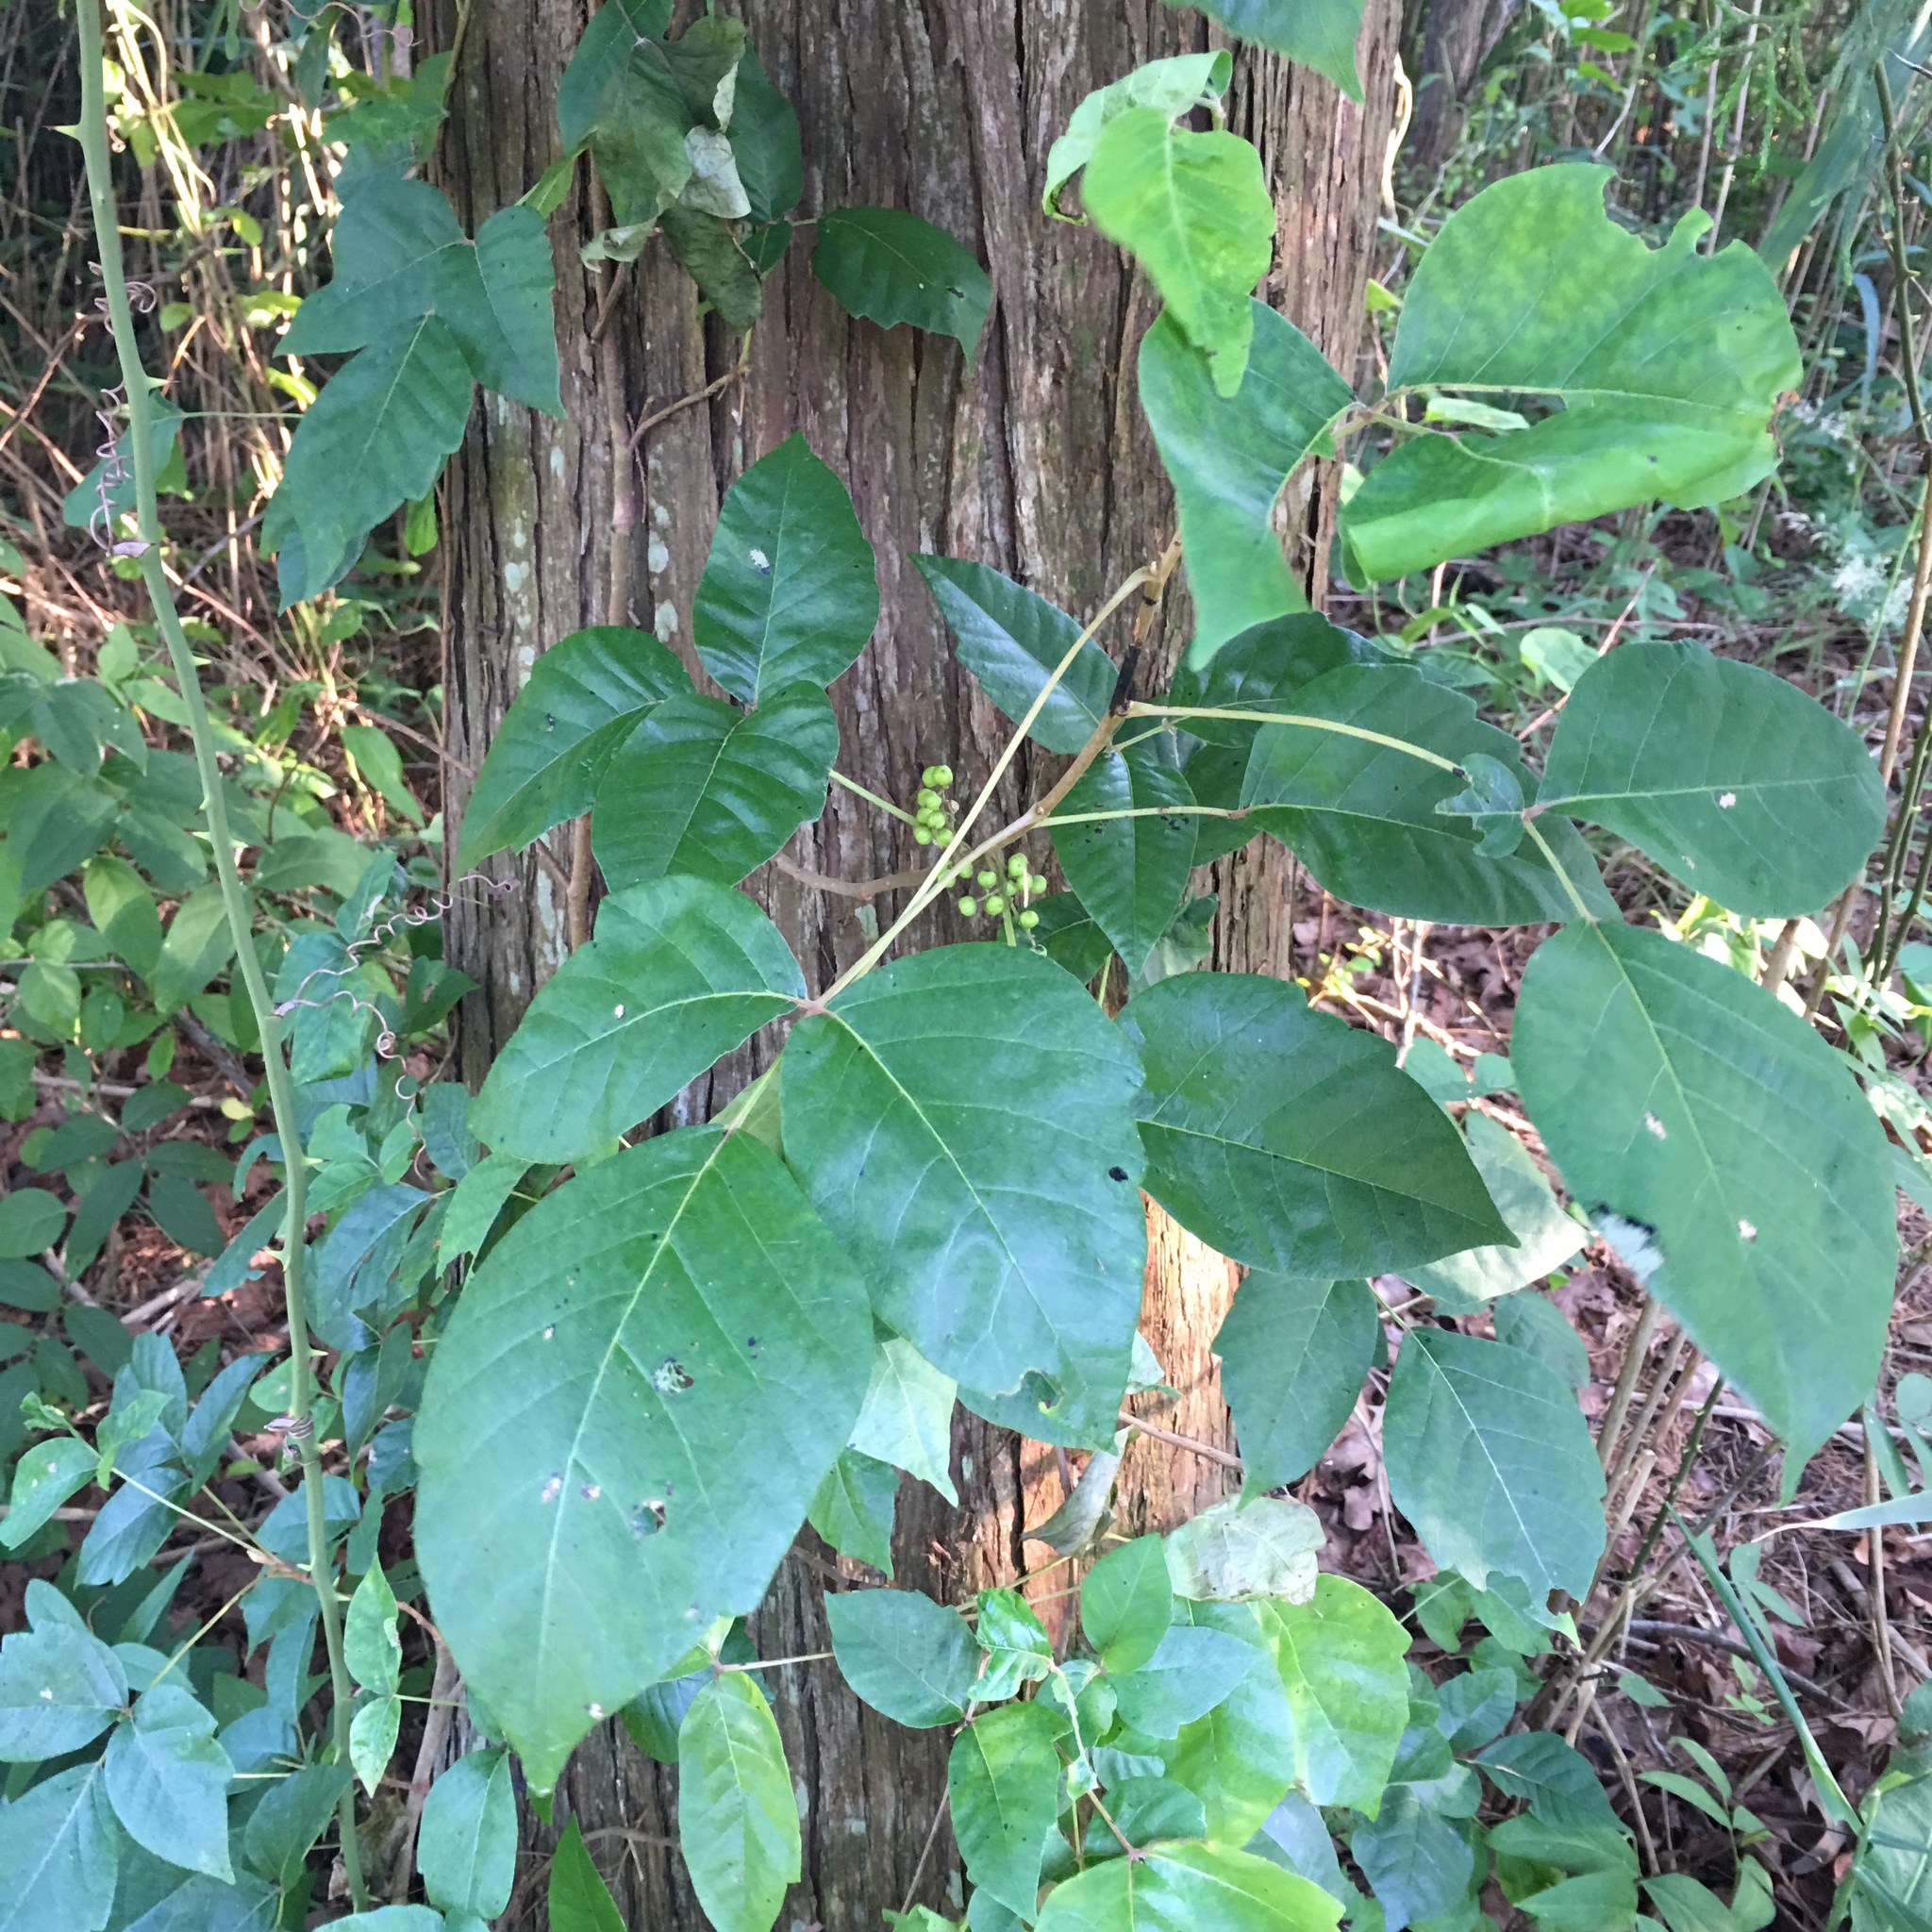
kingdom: Plantae
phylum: Tracheophyta
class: Magnoliopsida
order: Sapindales
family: Anacardiaceae
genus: Toxicodendron
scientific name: Toxicodendron radicans
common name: Poison ivy
